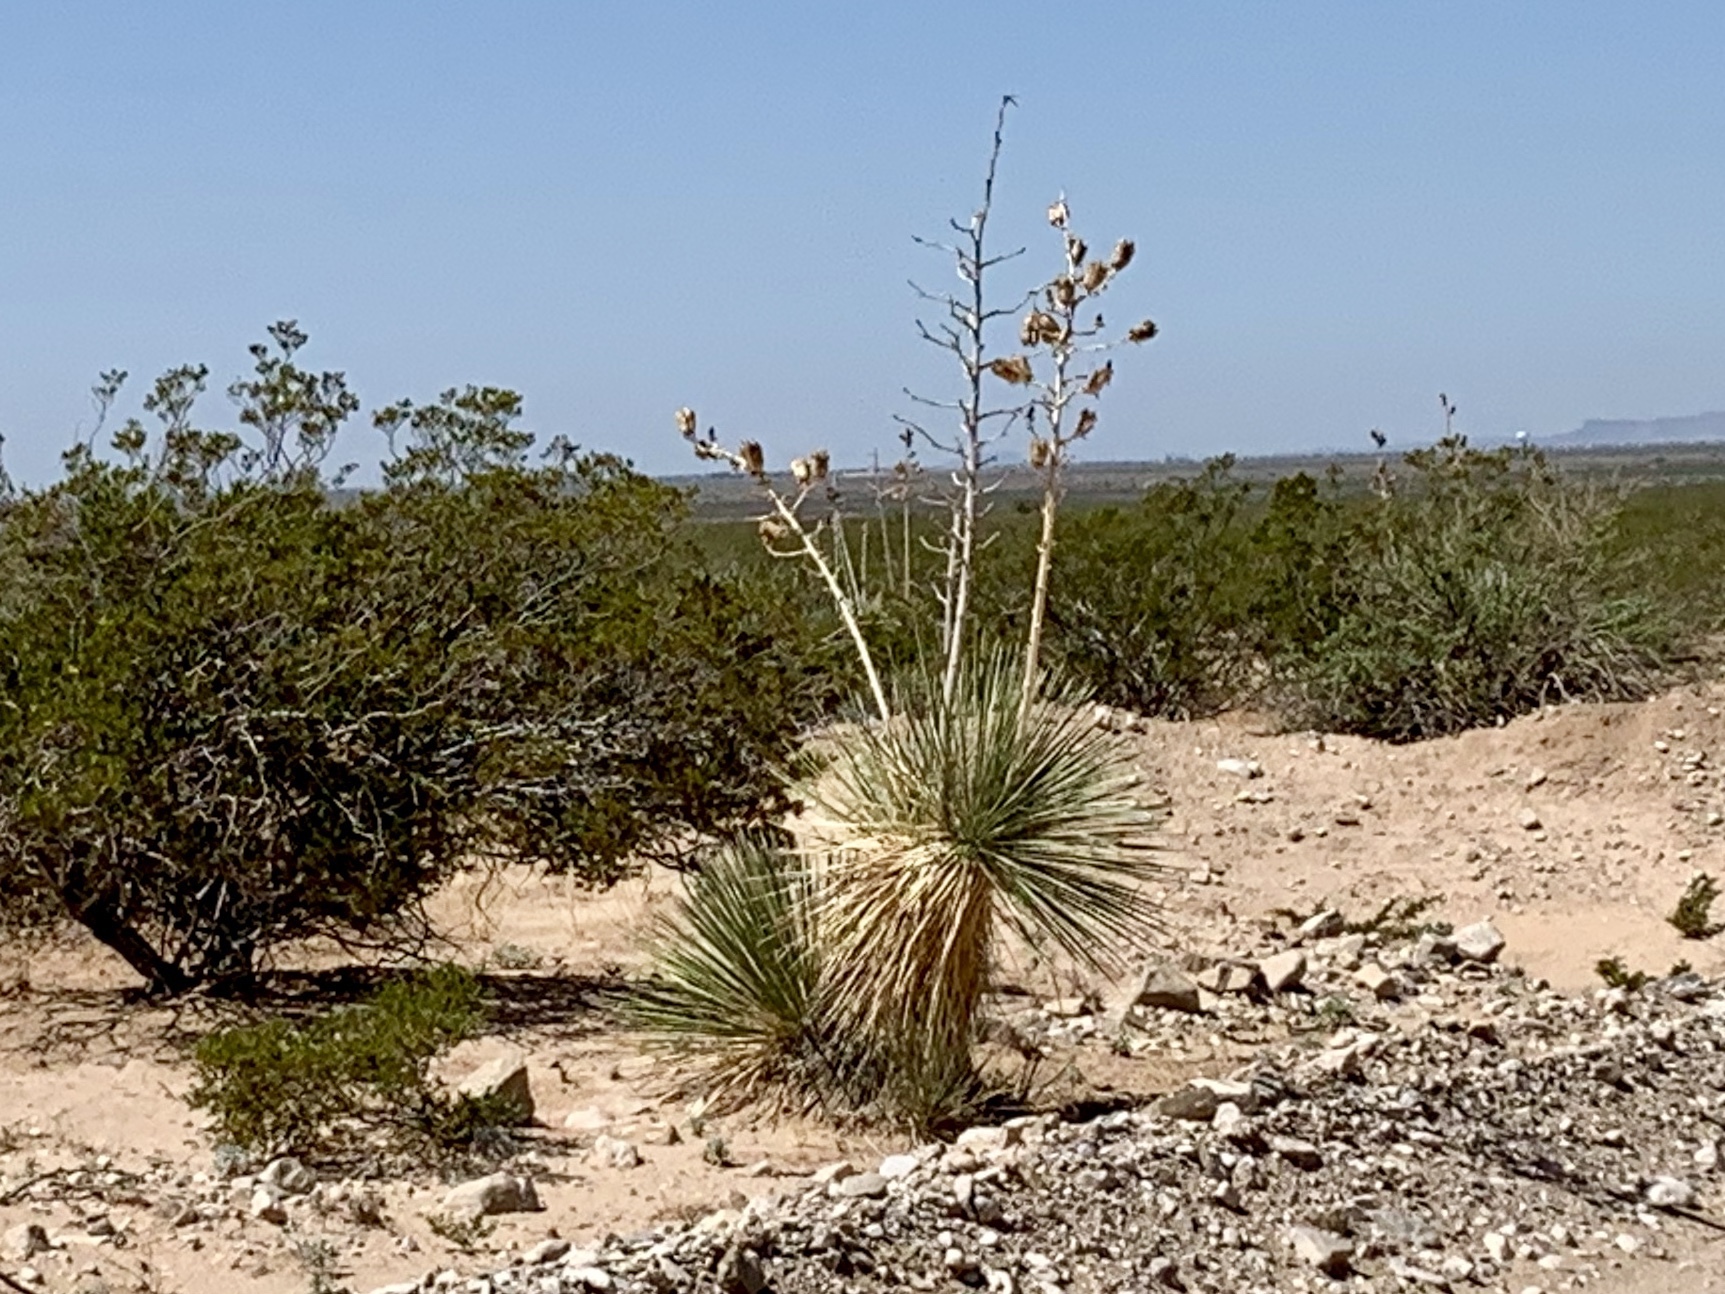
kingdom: Plantae
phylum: Tracheophyta
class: Liliopsida
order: Asparagales
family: Asparagaceae
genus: Yucca
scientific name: Yucca elata
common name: Palmella
